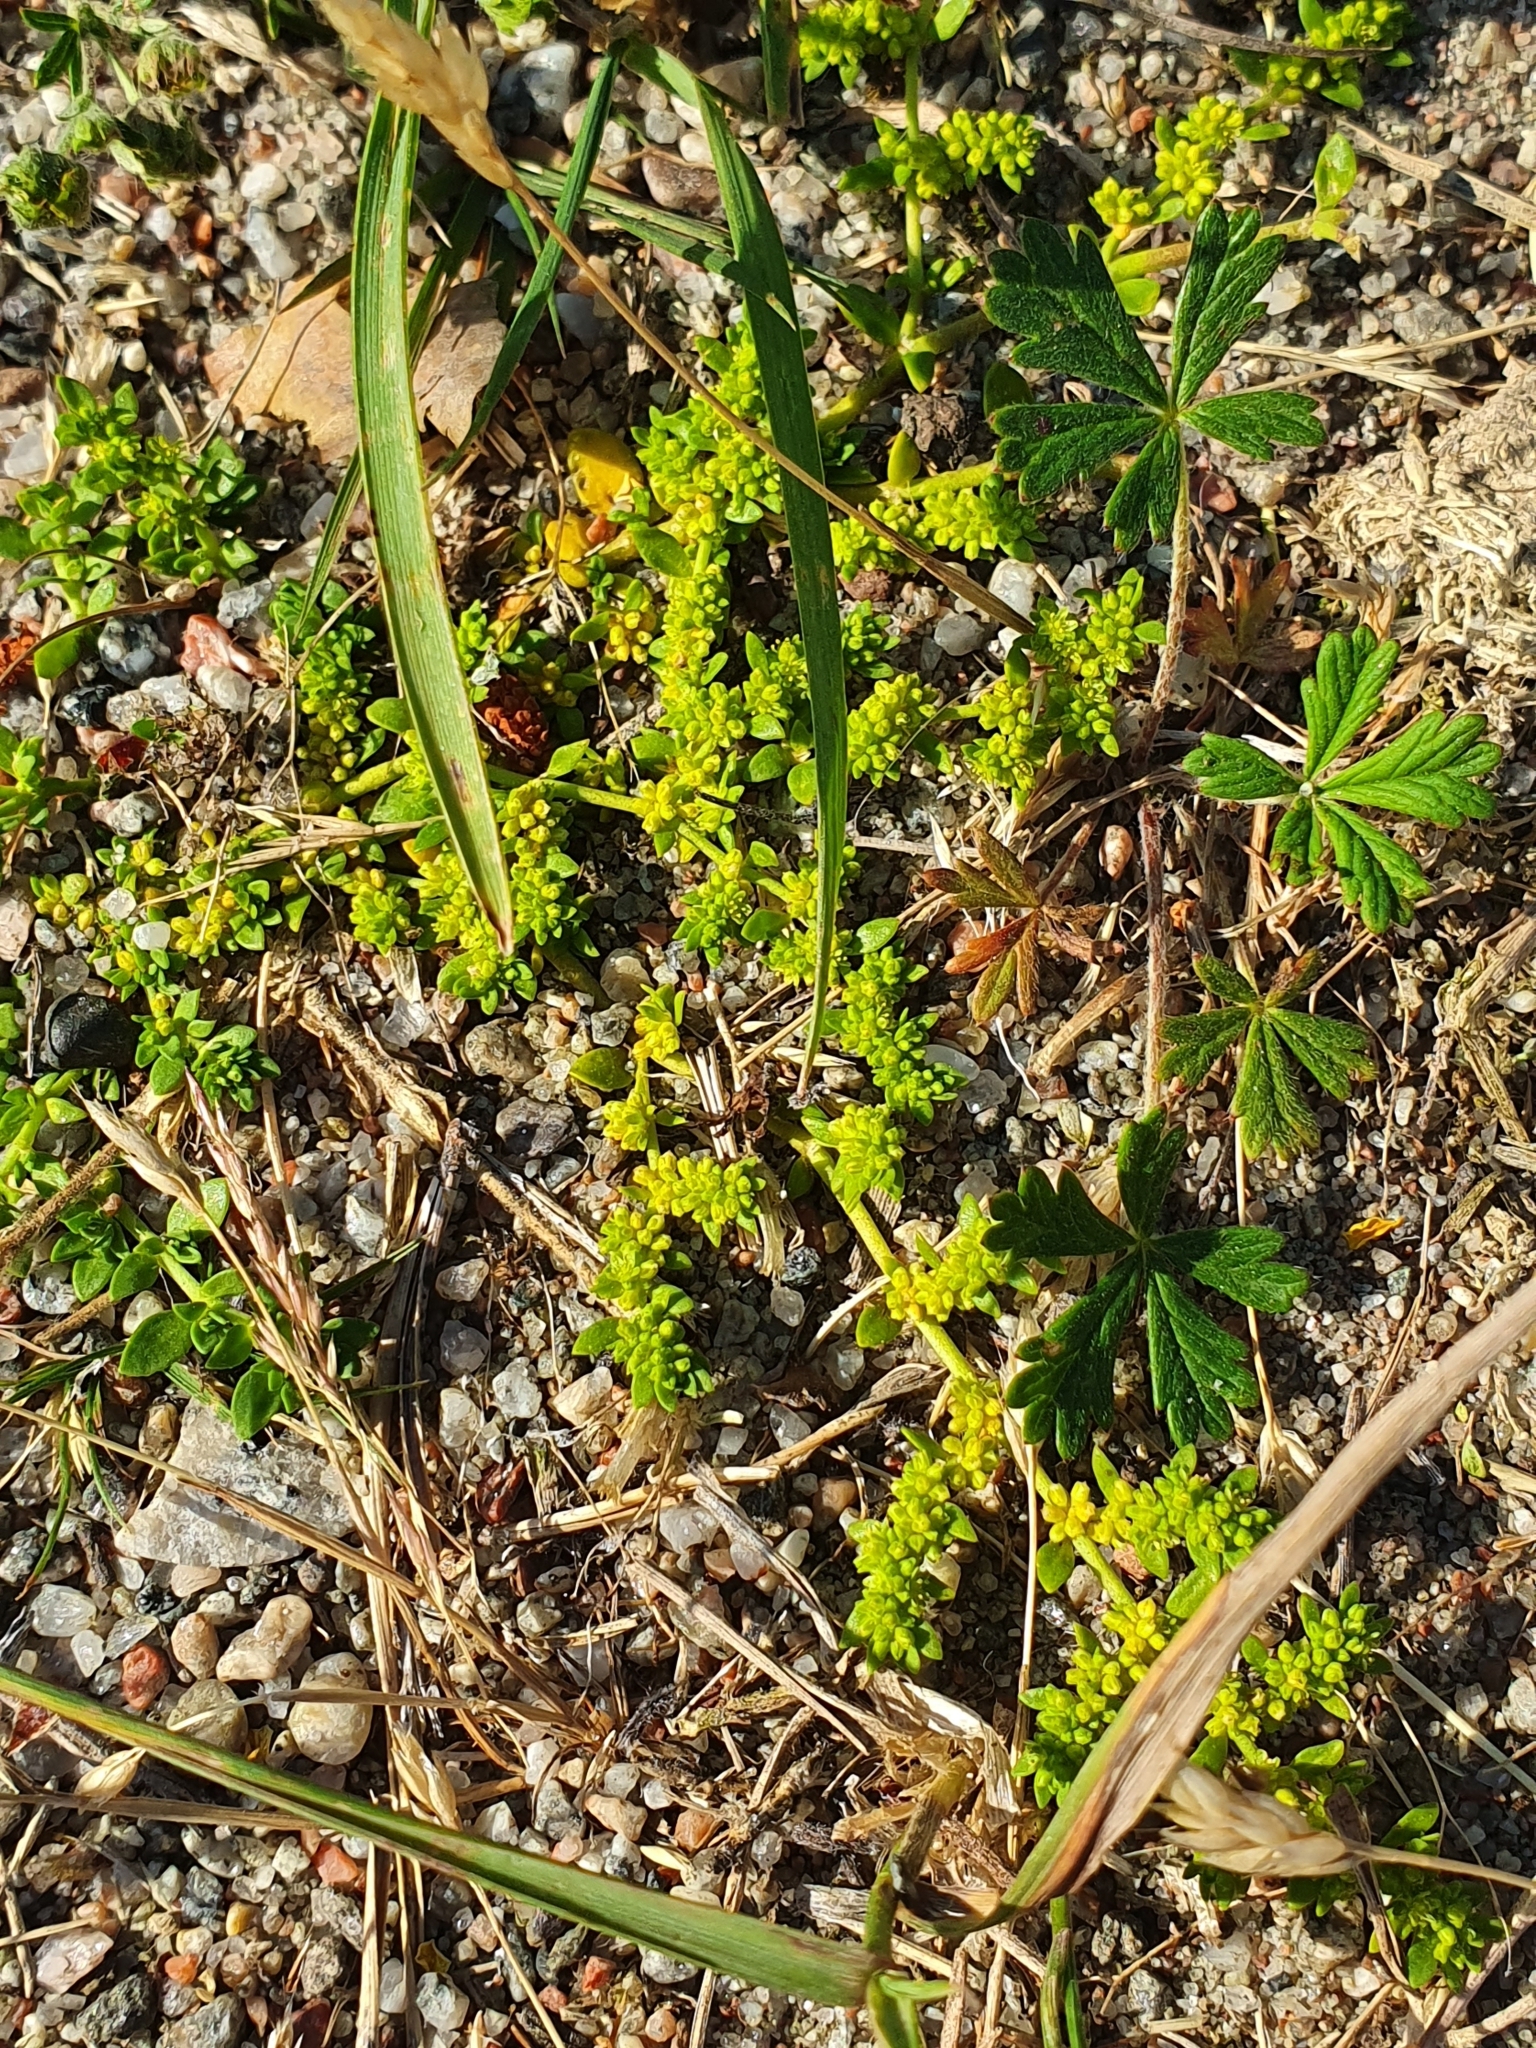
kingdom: Plantae
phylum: Tracheophyta
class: Magnoliopsida
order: Caryophyllales
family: Caryophyllaceae
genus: Herniaria
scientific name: Herniaria glabra
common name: Smooth rupturewort
